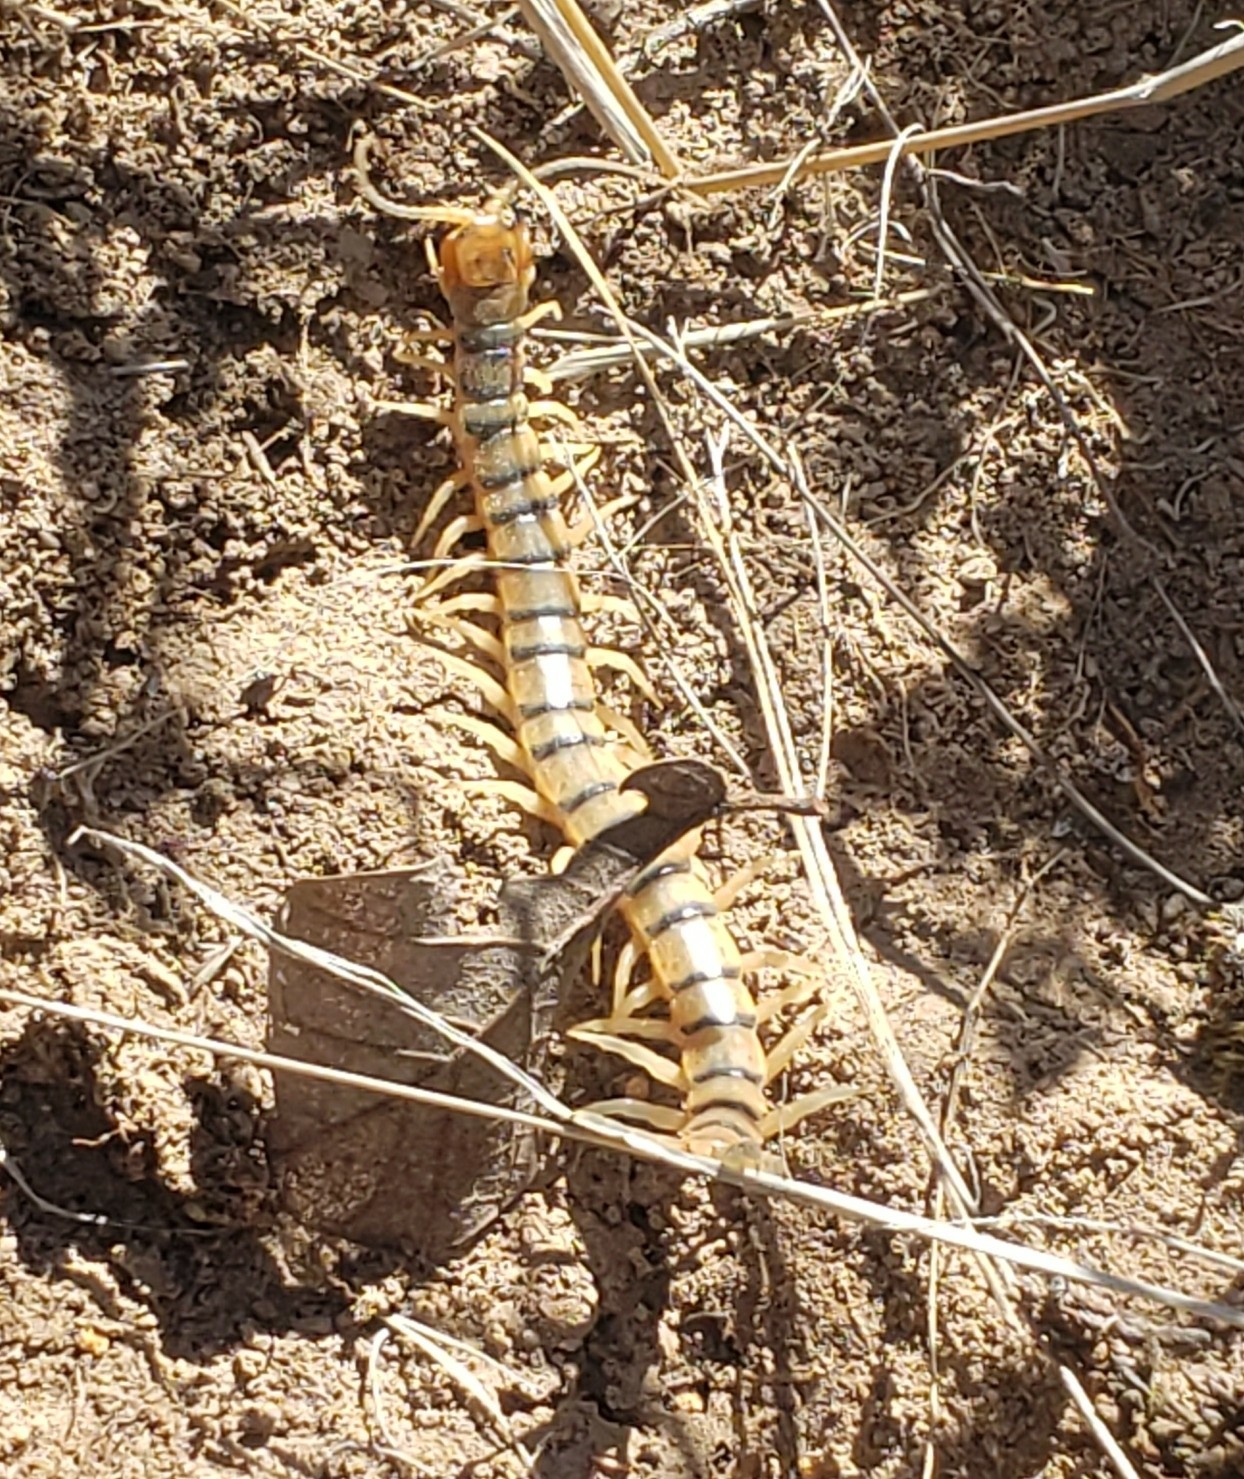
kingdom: Animalia
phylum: Arthropoda
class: Chilopoda
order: Scolopendromorpha
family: Scolopendridae
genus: Scolopendra
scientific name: Scolopendra polymorpha
